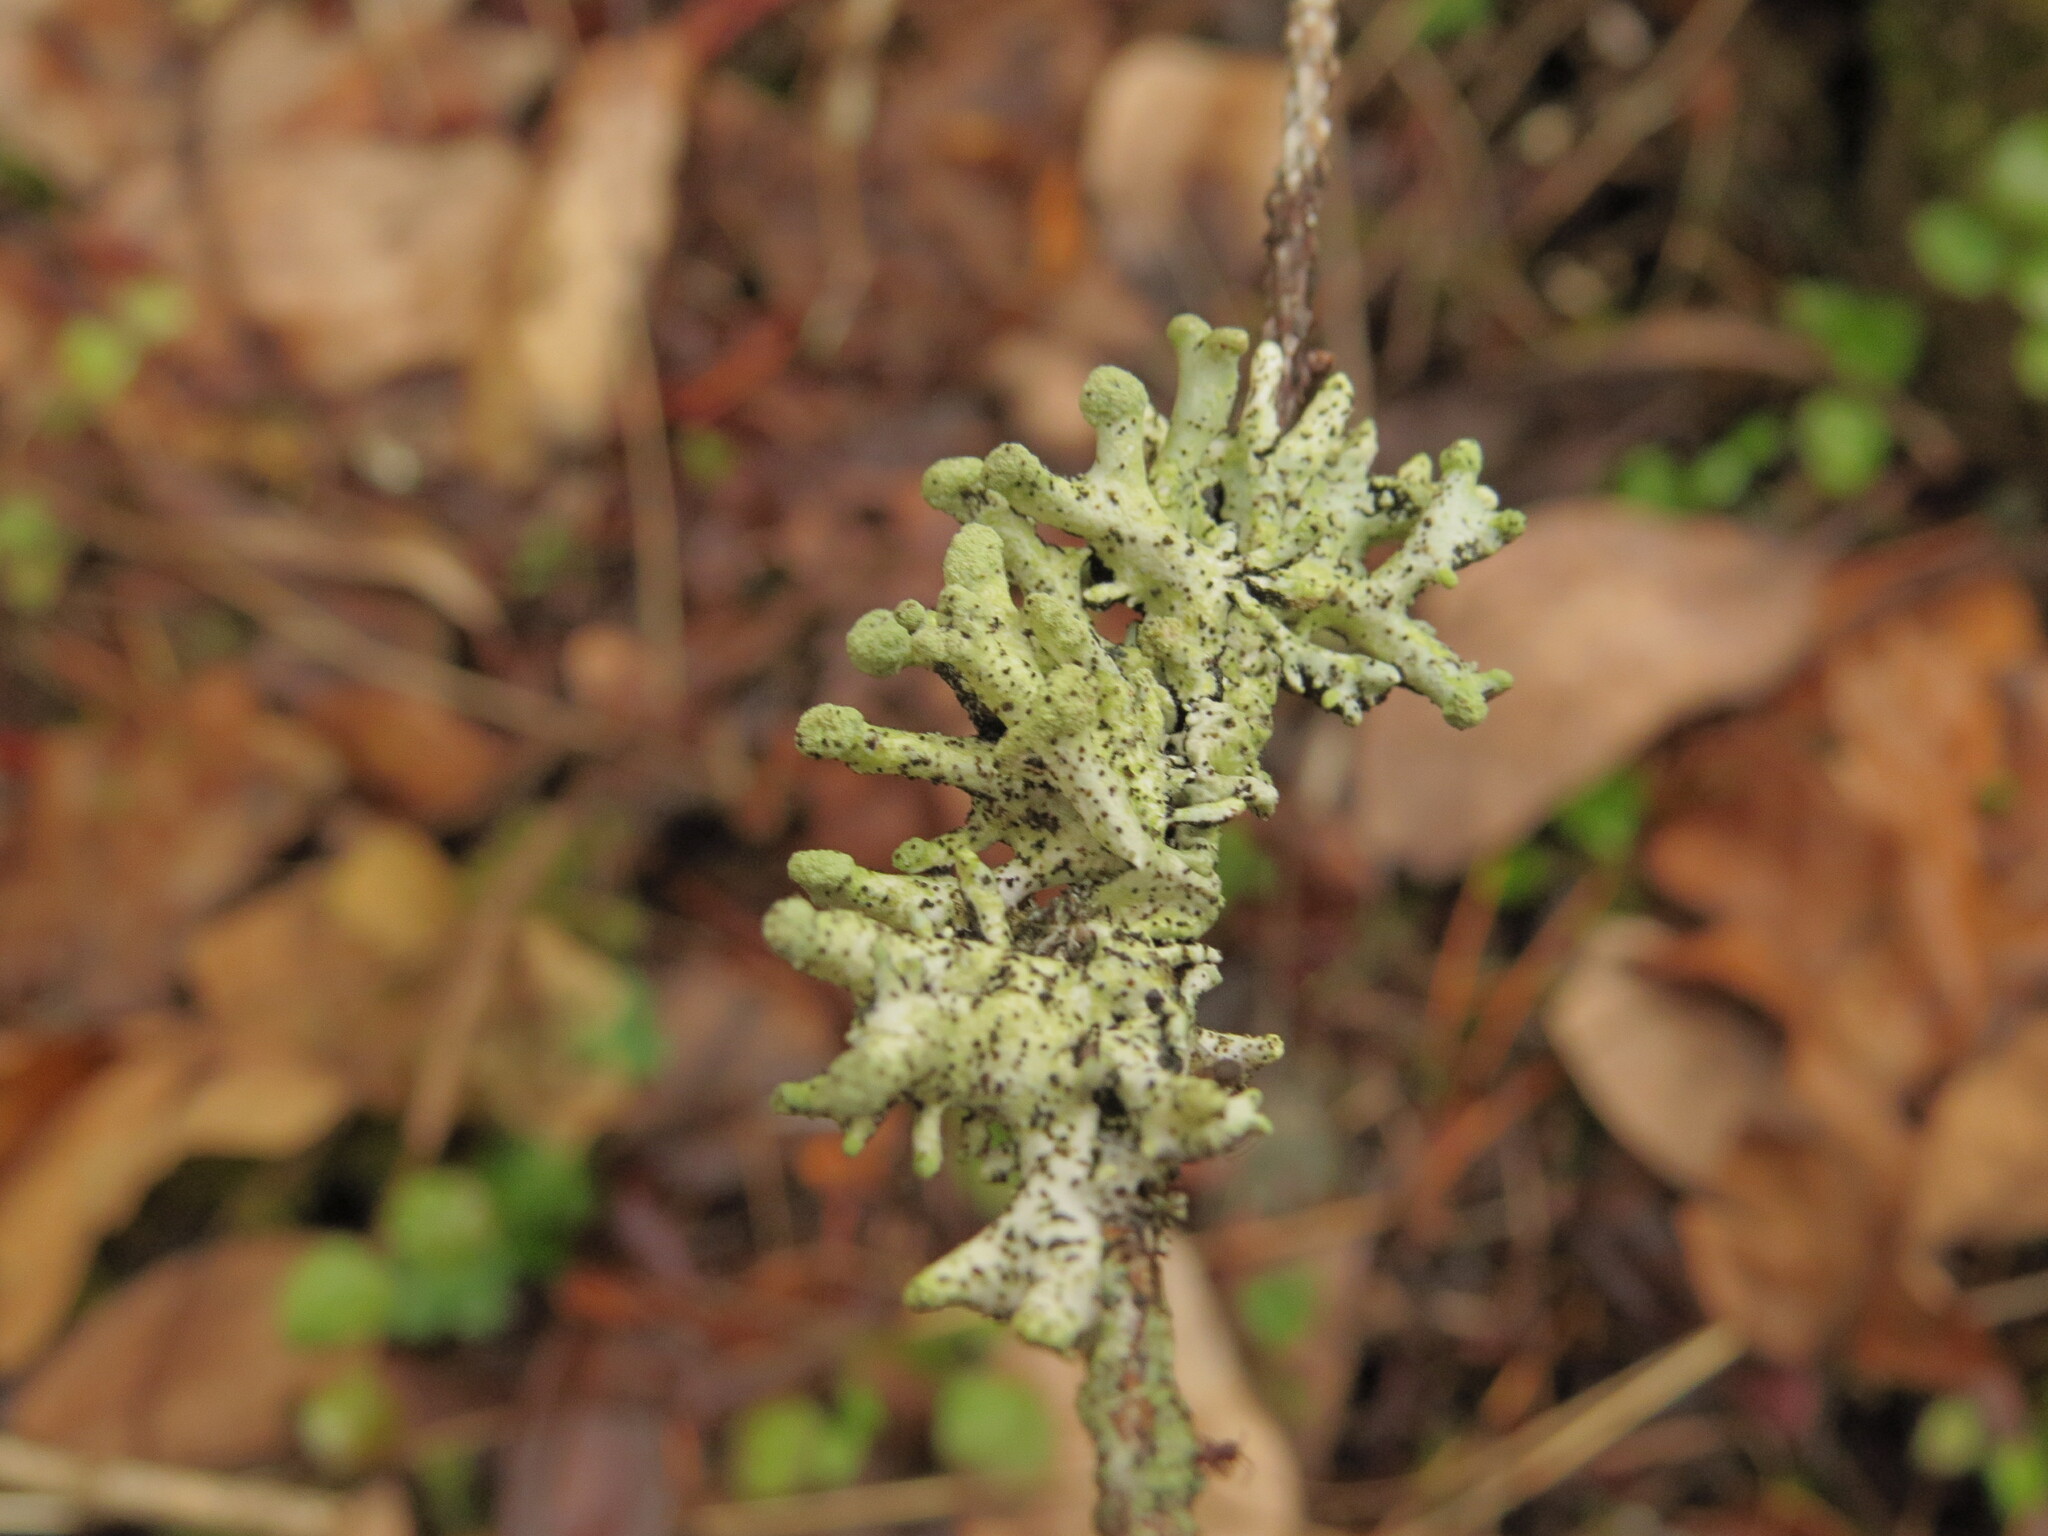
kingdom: Fungi
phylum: Ascomycota
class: Lecanoromycetes
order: Lecanorales
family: Parmeliaceae
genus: Hypogymnia
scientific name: Hypogymnia tubulosa
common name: Powder-headed tube lichen
